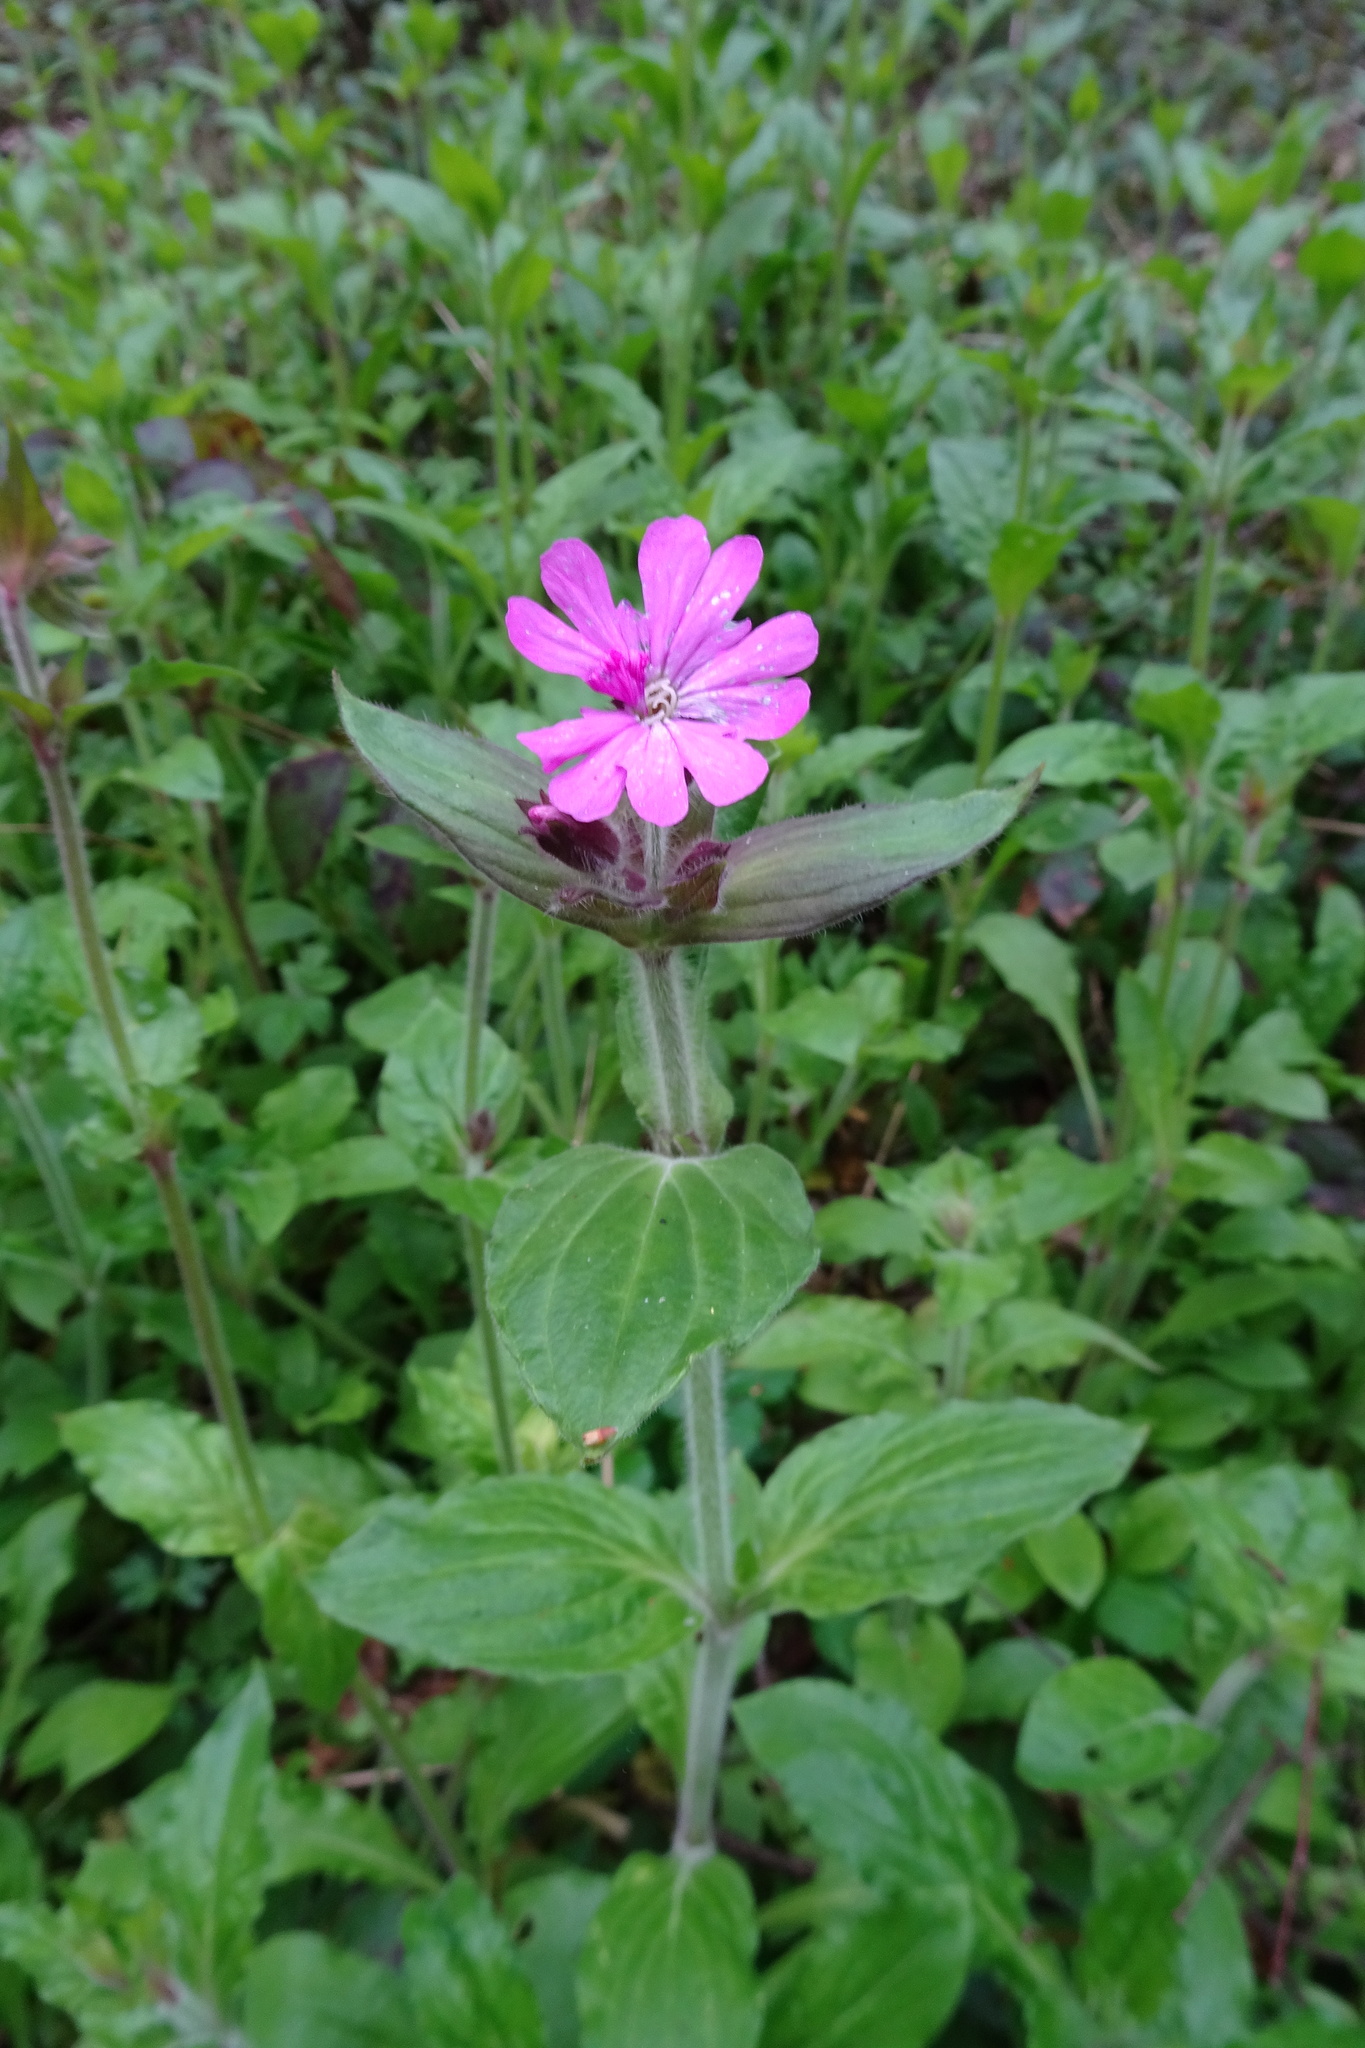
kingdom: Plantae
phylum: Tracheophyta
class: Magnoliopsida
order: Caryophyllales
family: Caryophyllaceae
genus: Silene
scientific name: Silene dioica
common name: Red campion
